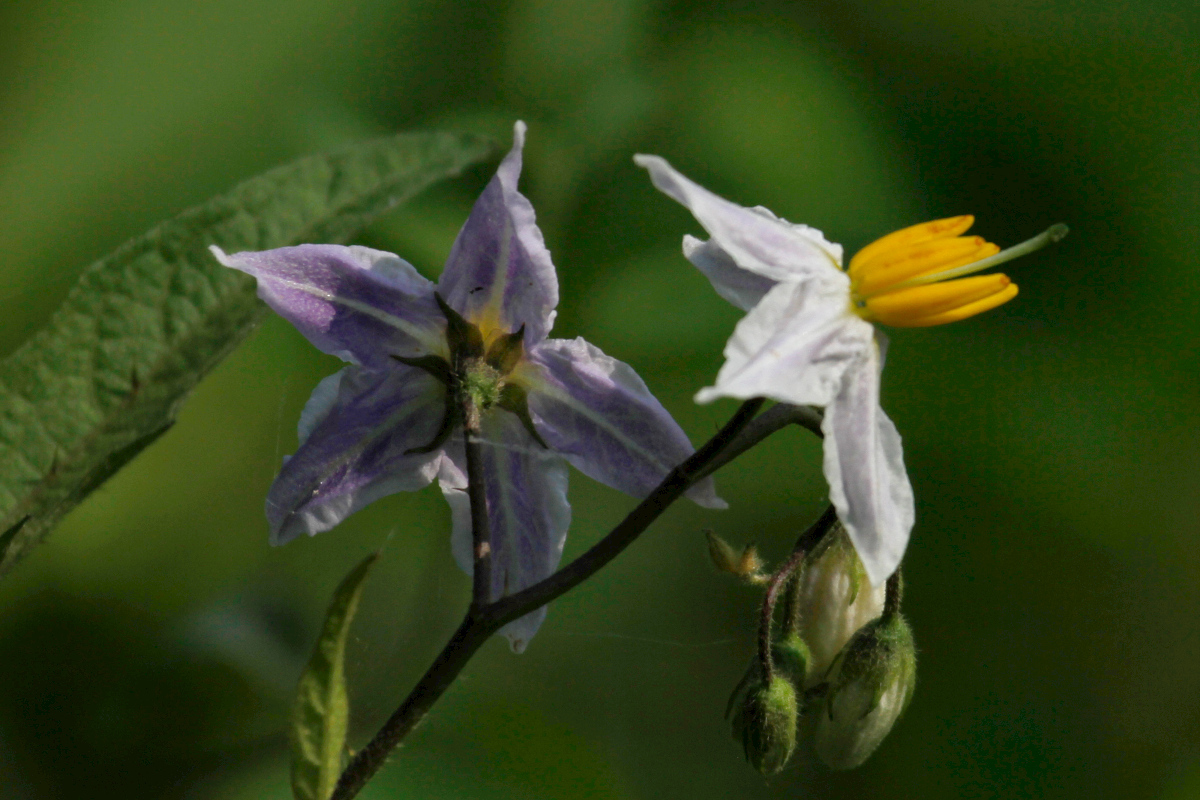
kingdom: Plantae
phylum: Tracheophyta
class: Magnoliopsida
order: Solanales
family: Solanaceae
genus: Solanum
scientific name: Solanum carolinense
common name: Horse-nettle
